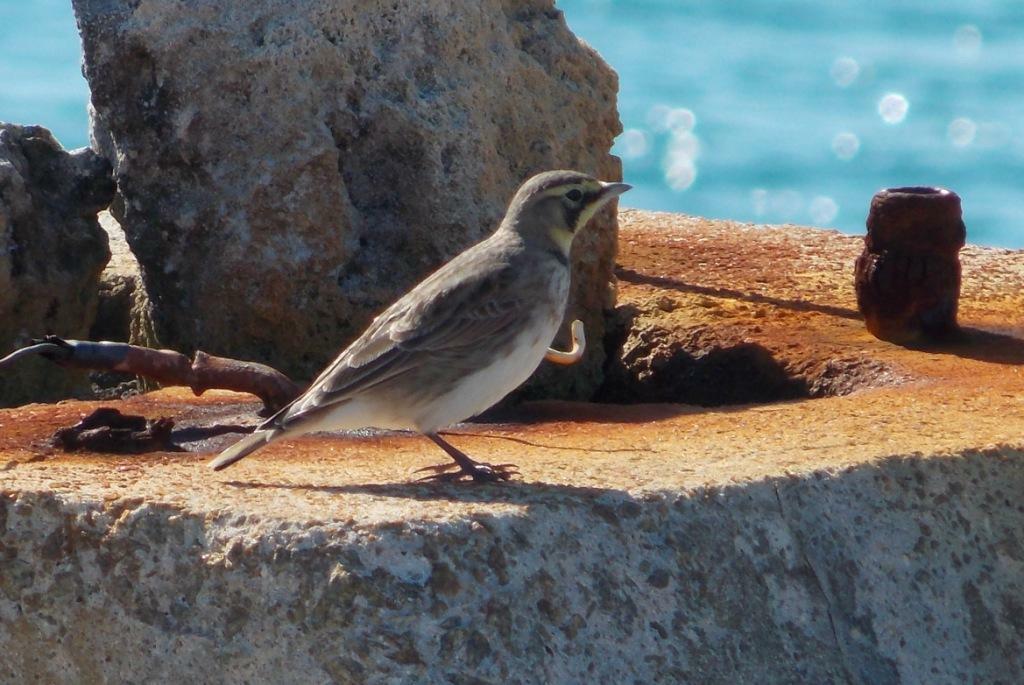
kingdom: Animalia
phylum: Chordata
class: Aves
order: Passeriformes
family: Alaudidae
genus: Eremophila
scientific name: Eremophila alpestris
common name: Horned lark
